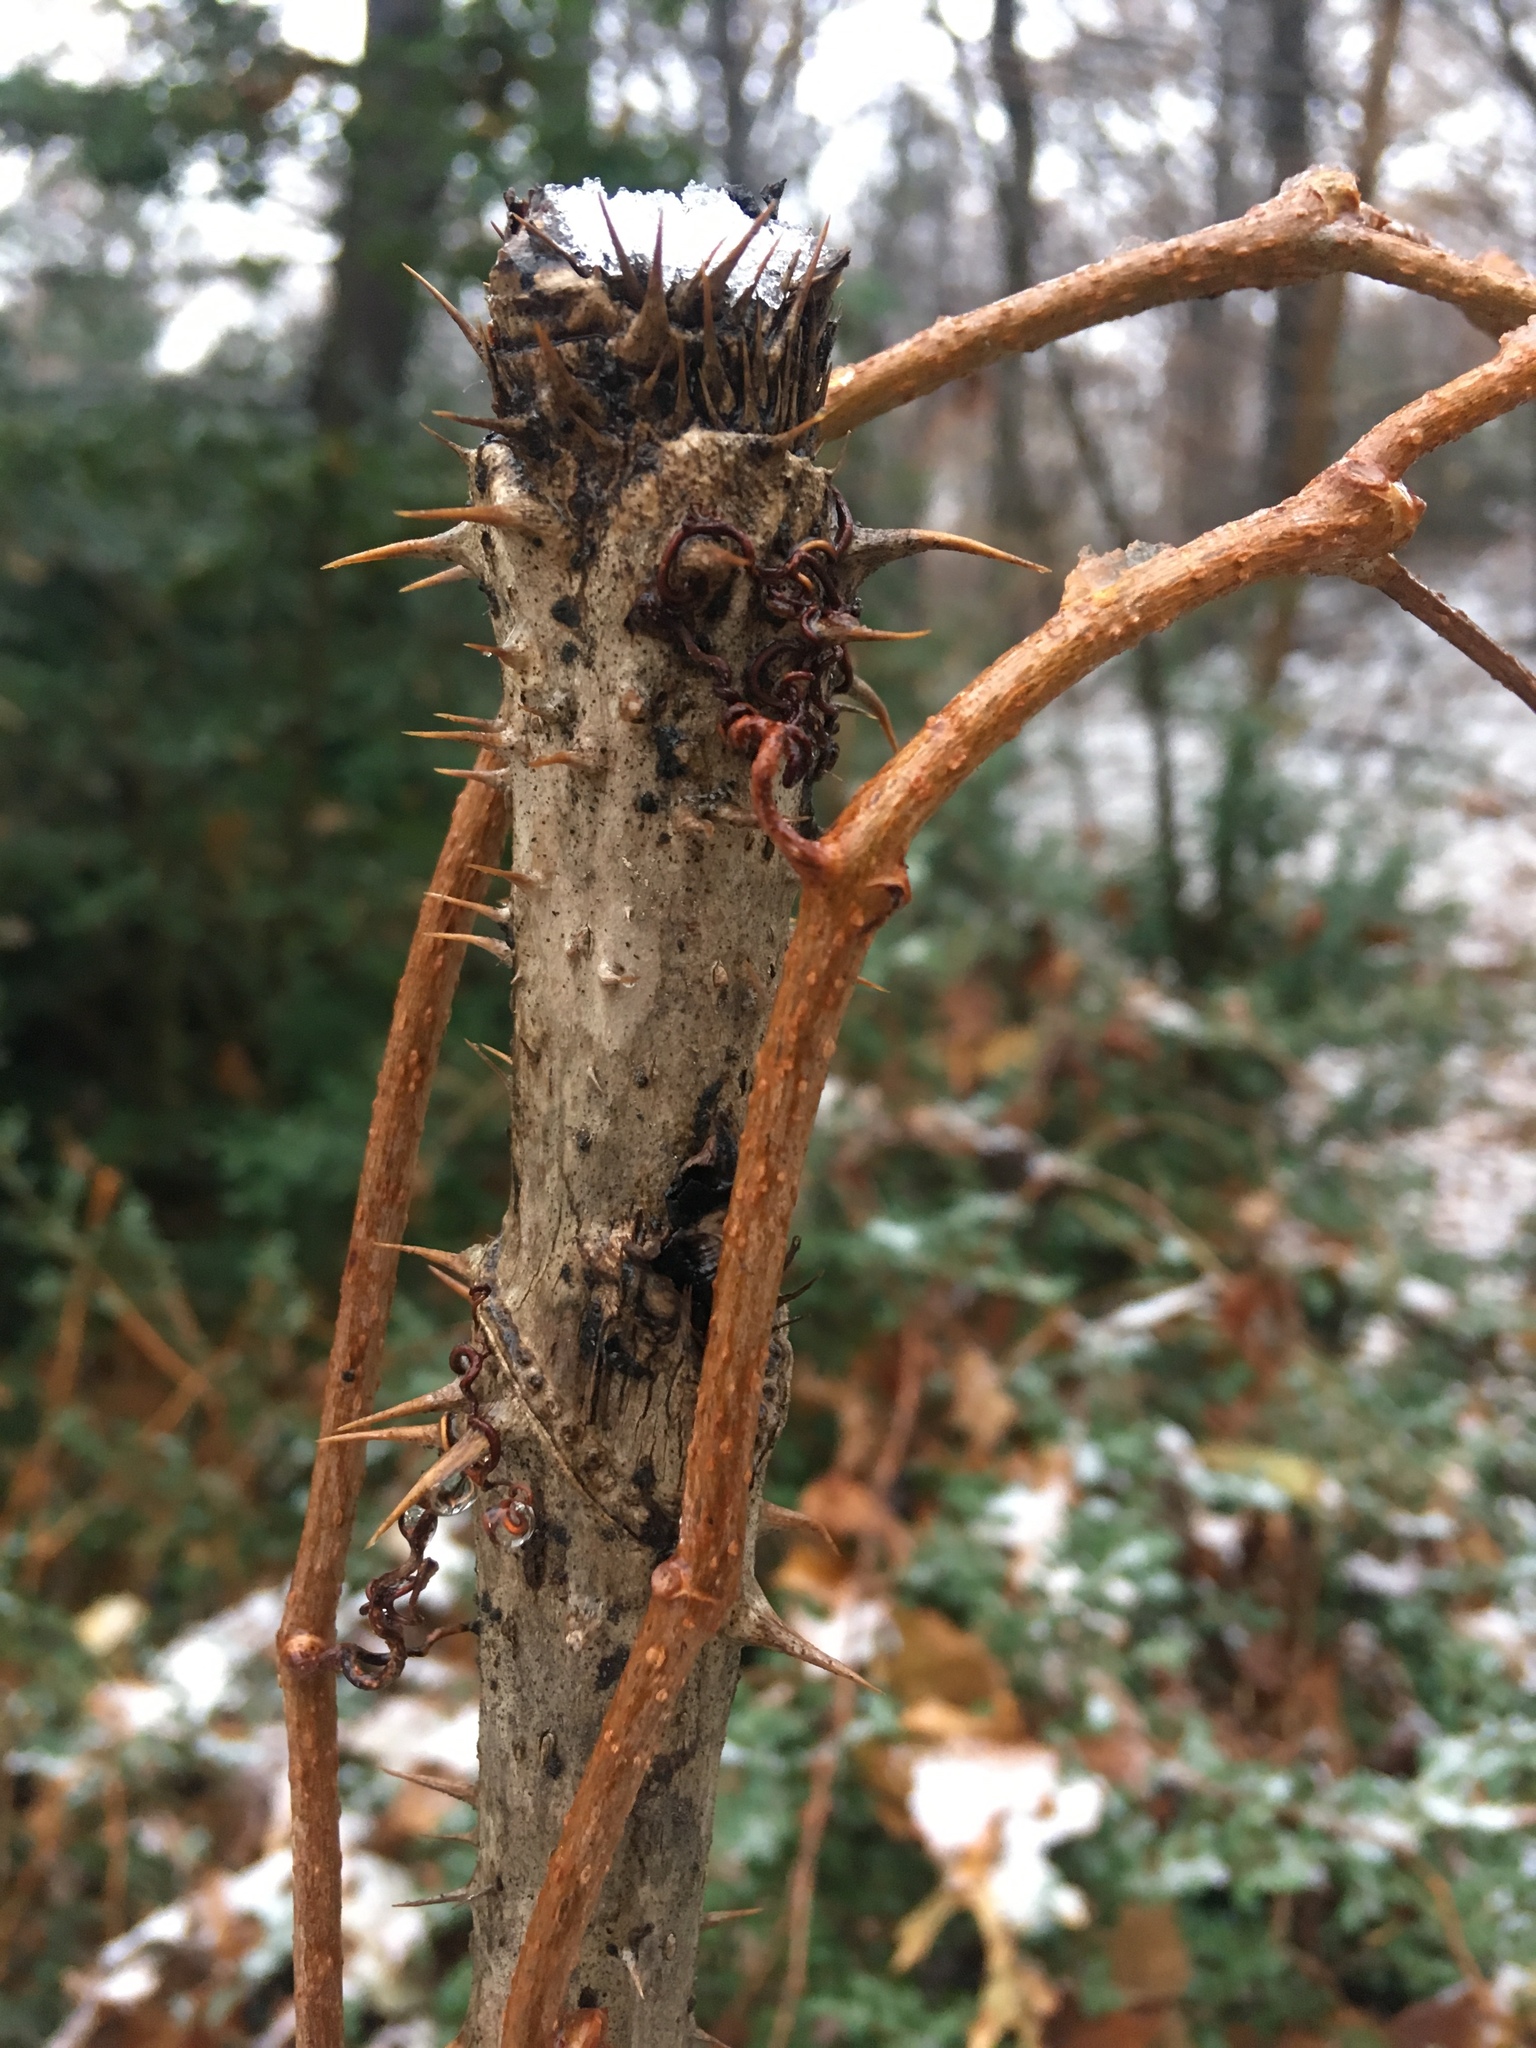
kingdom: Plantae
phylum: Tracheophyta
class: Magnoliopsida
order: Apiales
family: Araliaceae
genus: Aralia
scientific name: Aralia elata
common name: Japanese angelica-tree
